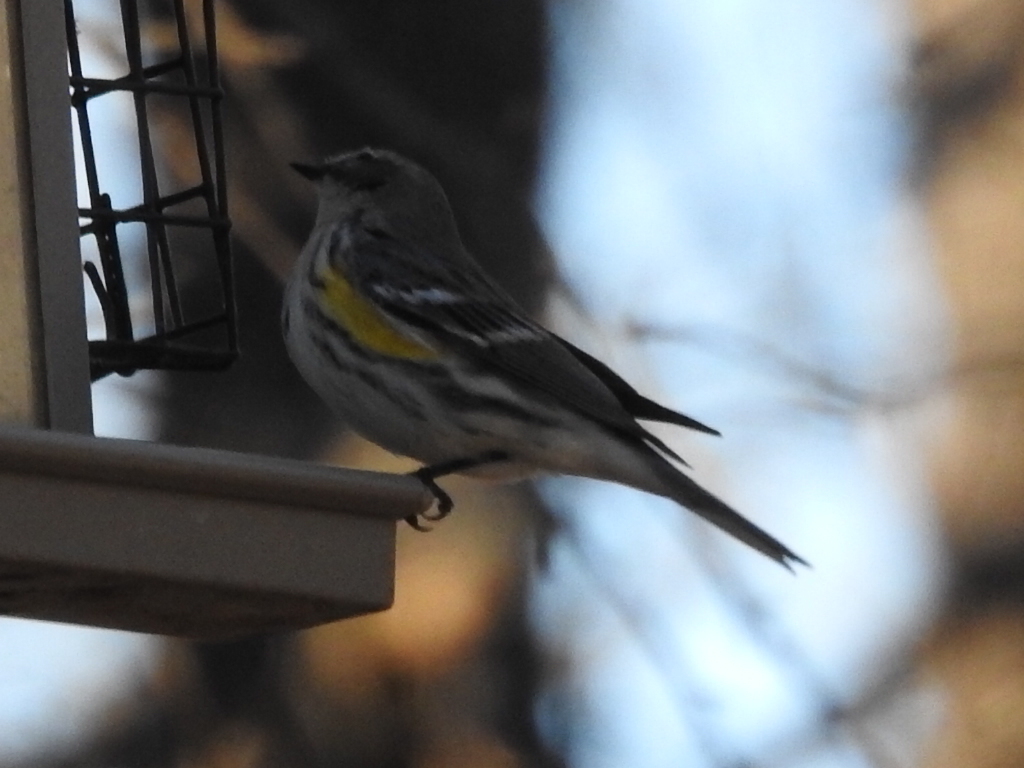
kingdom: Animalia
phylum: Chordata
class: Aves
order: Passeriformes
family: Parulidae
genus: Setophaga
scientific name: Setophaga coronata
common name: Myrtle warbler
